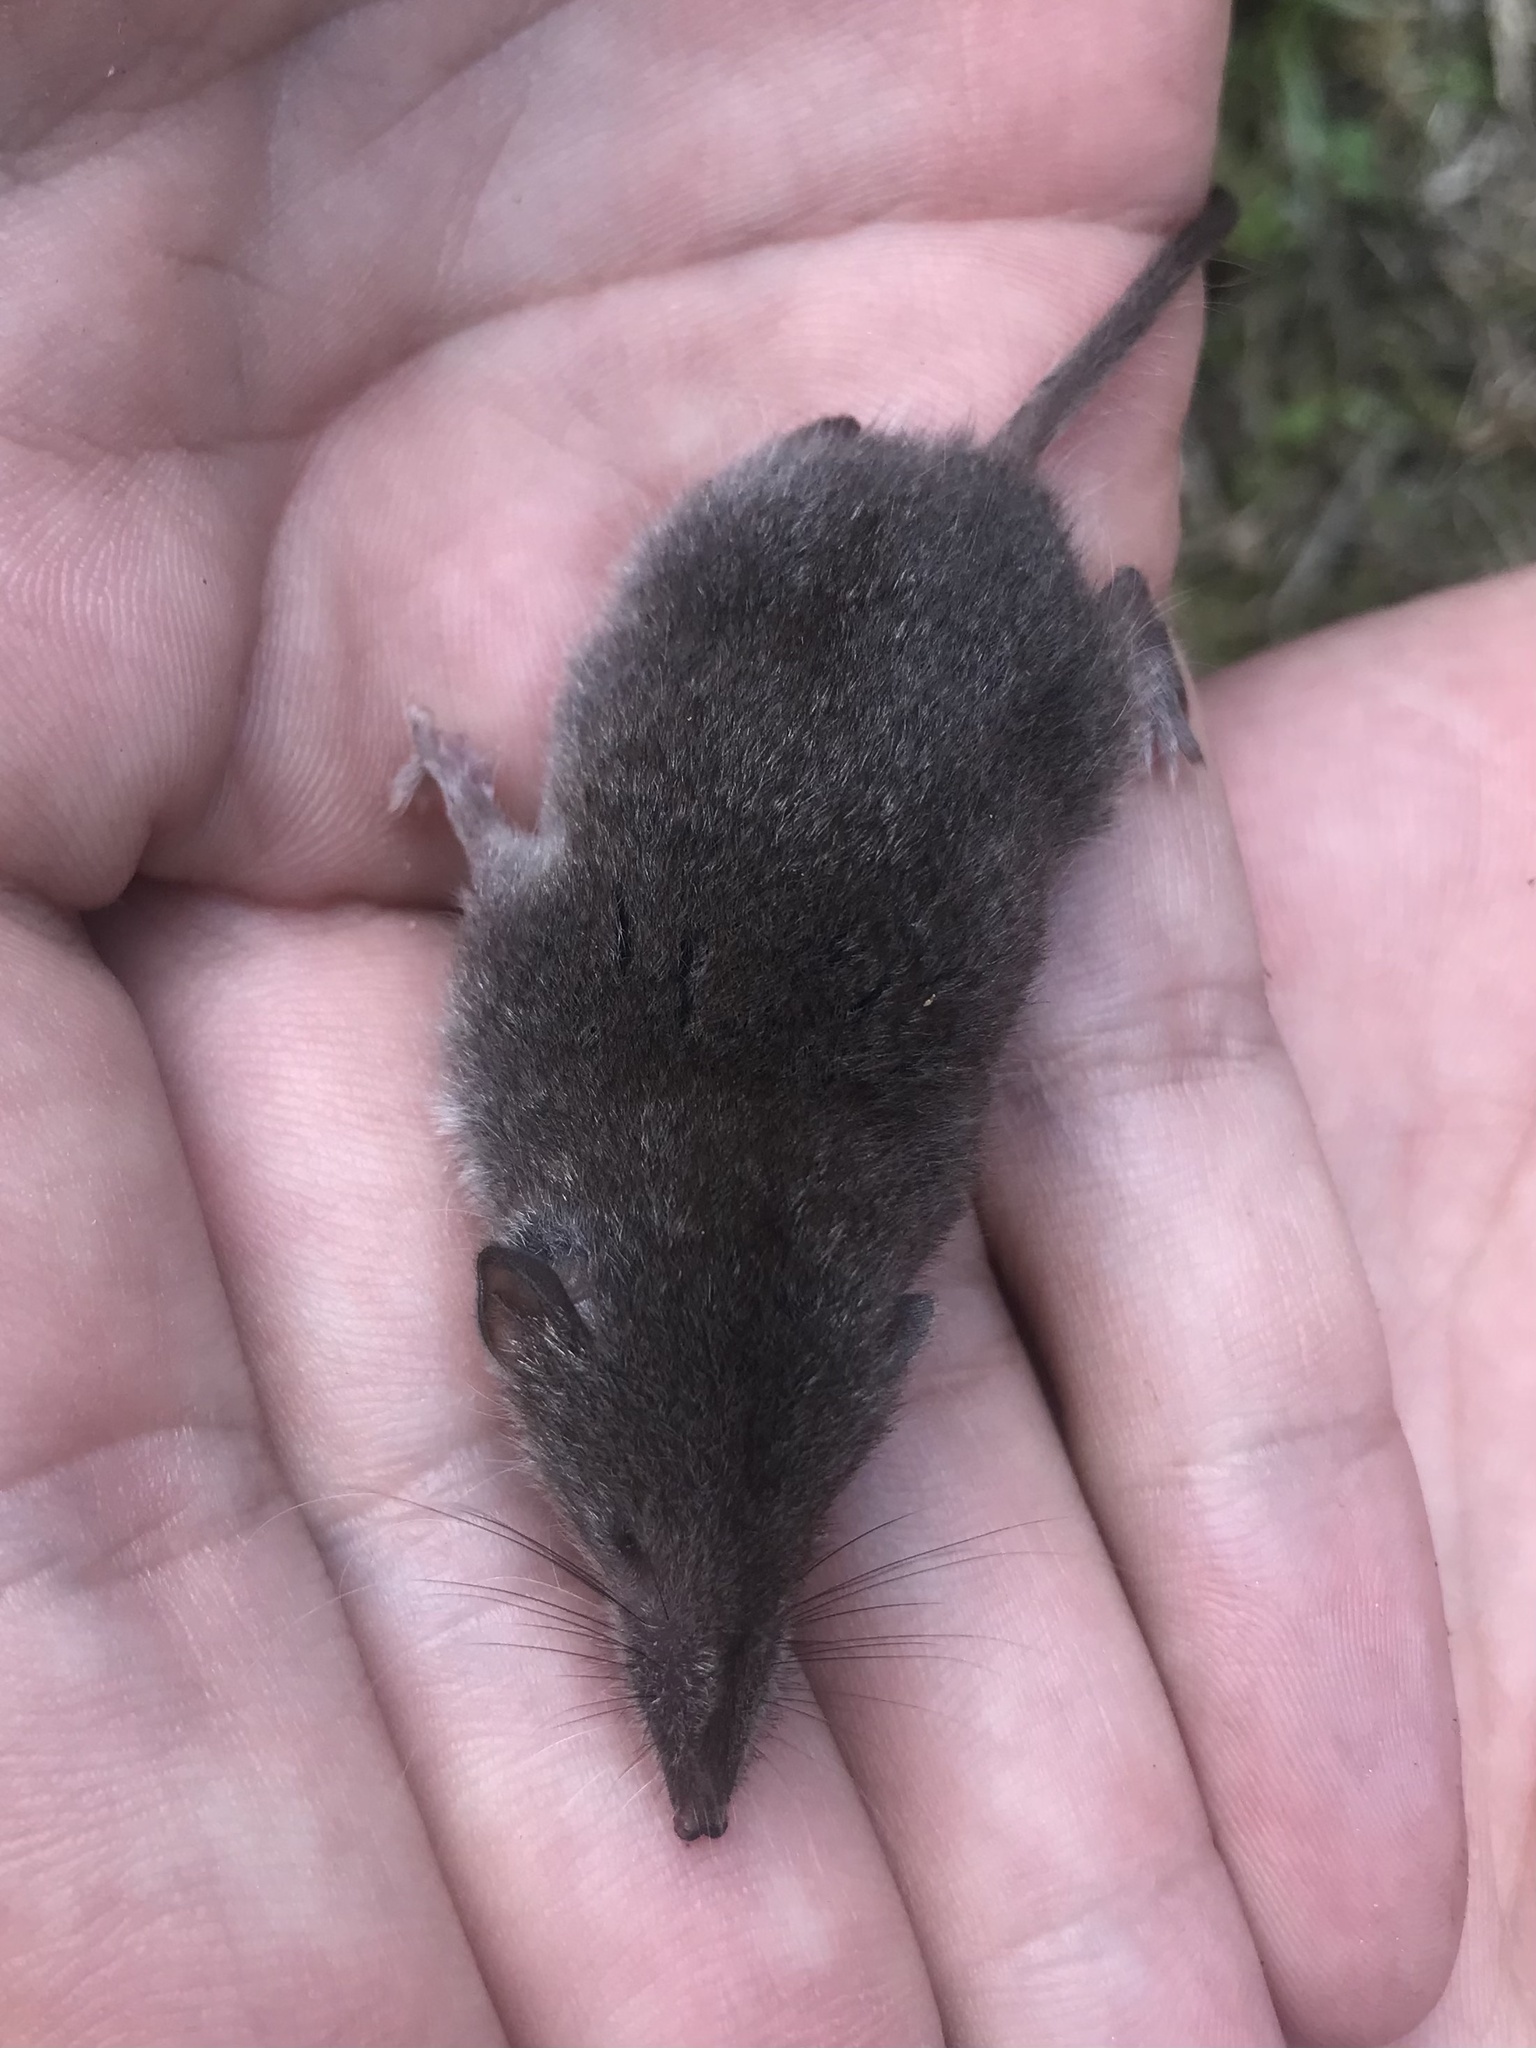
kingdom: Animalia
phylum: Chordata
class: Mammalia
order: Soricomorpha
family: Soricidae
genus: Crocidura
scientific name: Crocidura leucodon
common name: Bicolored shrew
